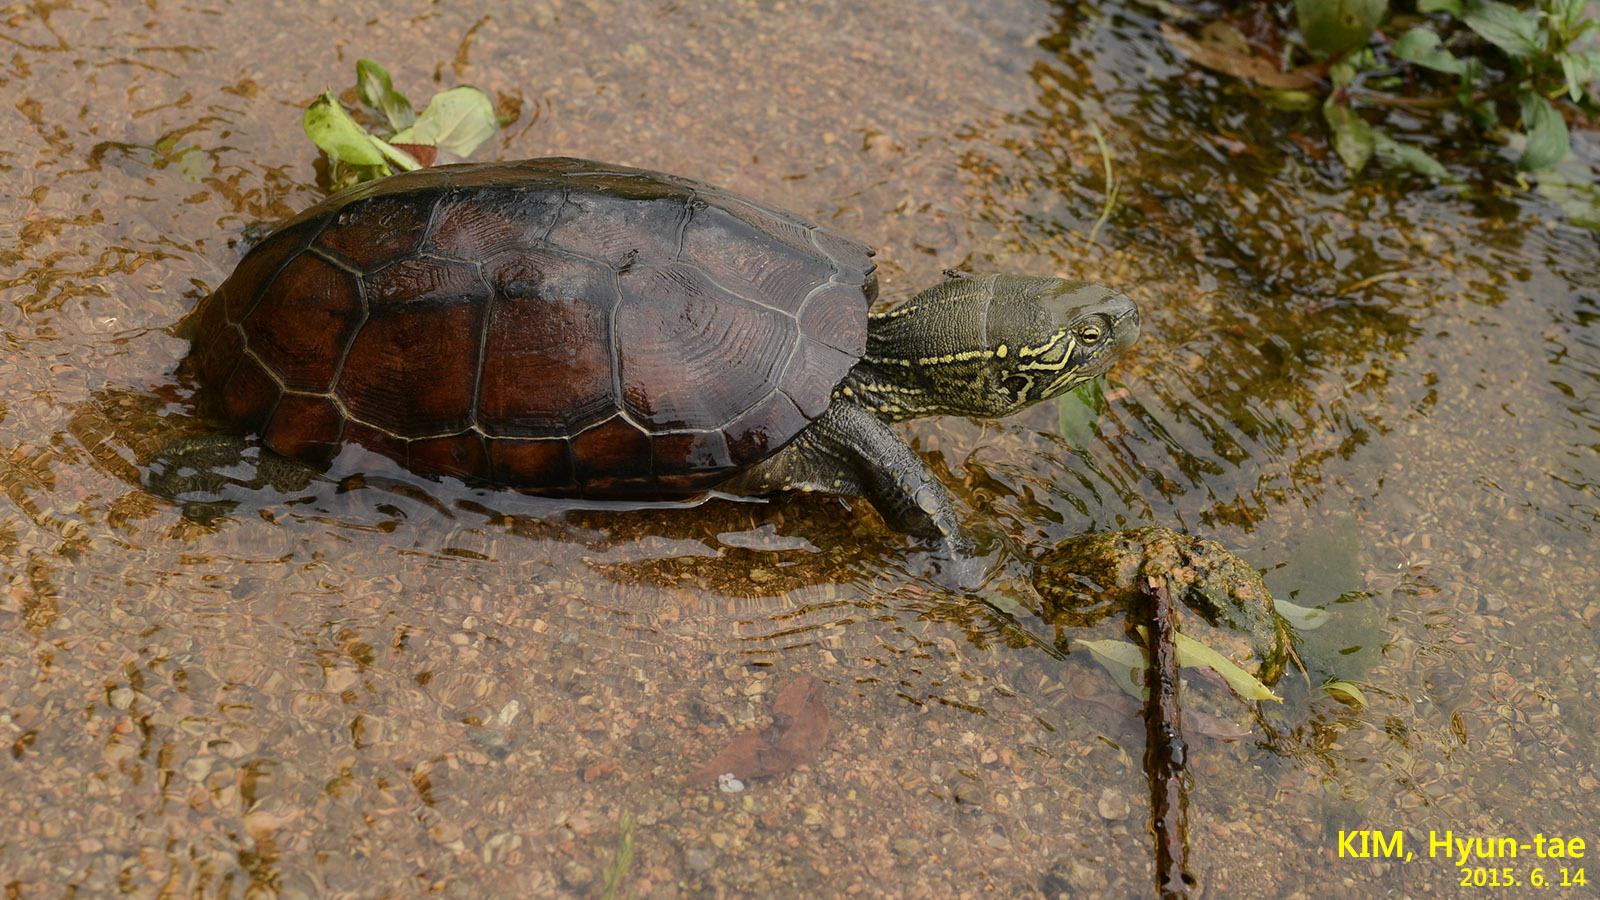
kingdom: Animalia
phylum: Chordata
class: Testudines
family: Geoemydidae
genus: Mauremys
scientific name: Mauremys reevesii
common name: Chinese pond turtle
